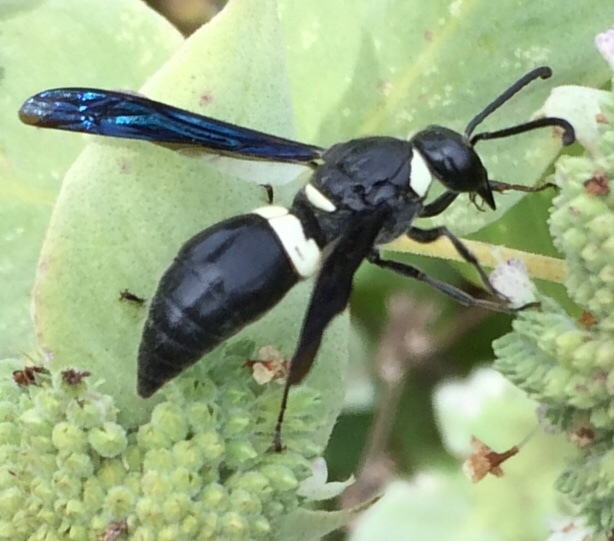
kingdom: Animalia
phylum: Arthropoda
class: Insecta
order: Hymenoptera
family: Eumenidae
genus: Monobia
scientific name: Monobia quadridens
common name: Four-toothed mason wasp
